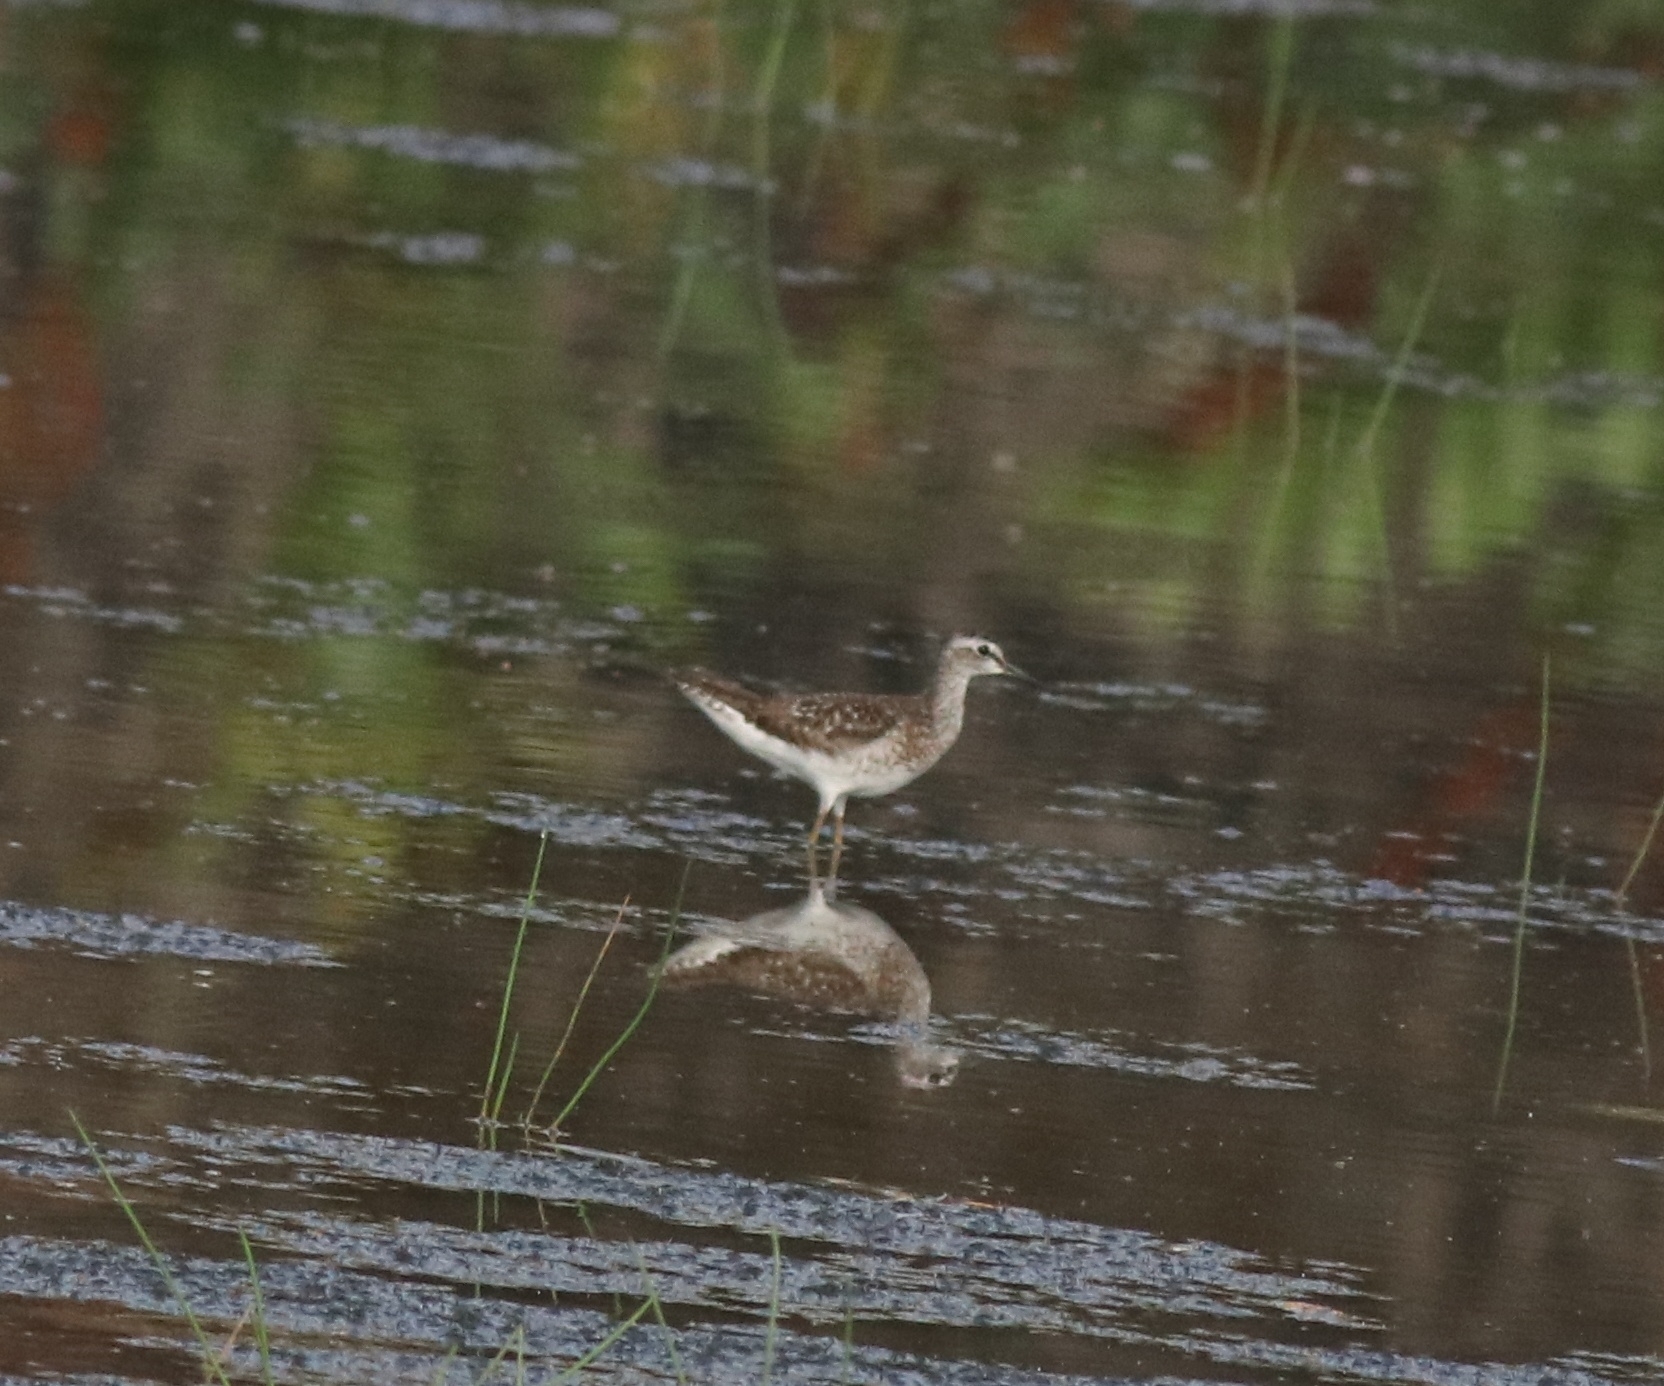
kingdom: Animalia
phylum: Chordata
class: Aves
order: Charadriiformes
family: Scolopacidae
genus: Tringa
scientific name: Tringa glareola
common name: Wood sandpiper
